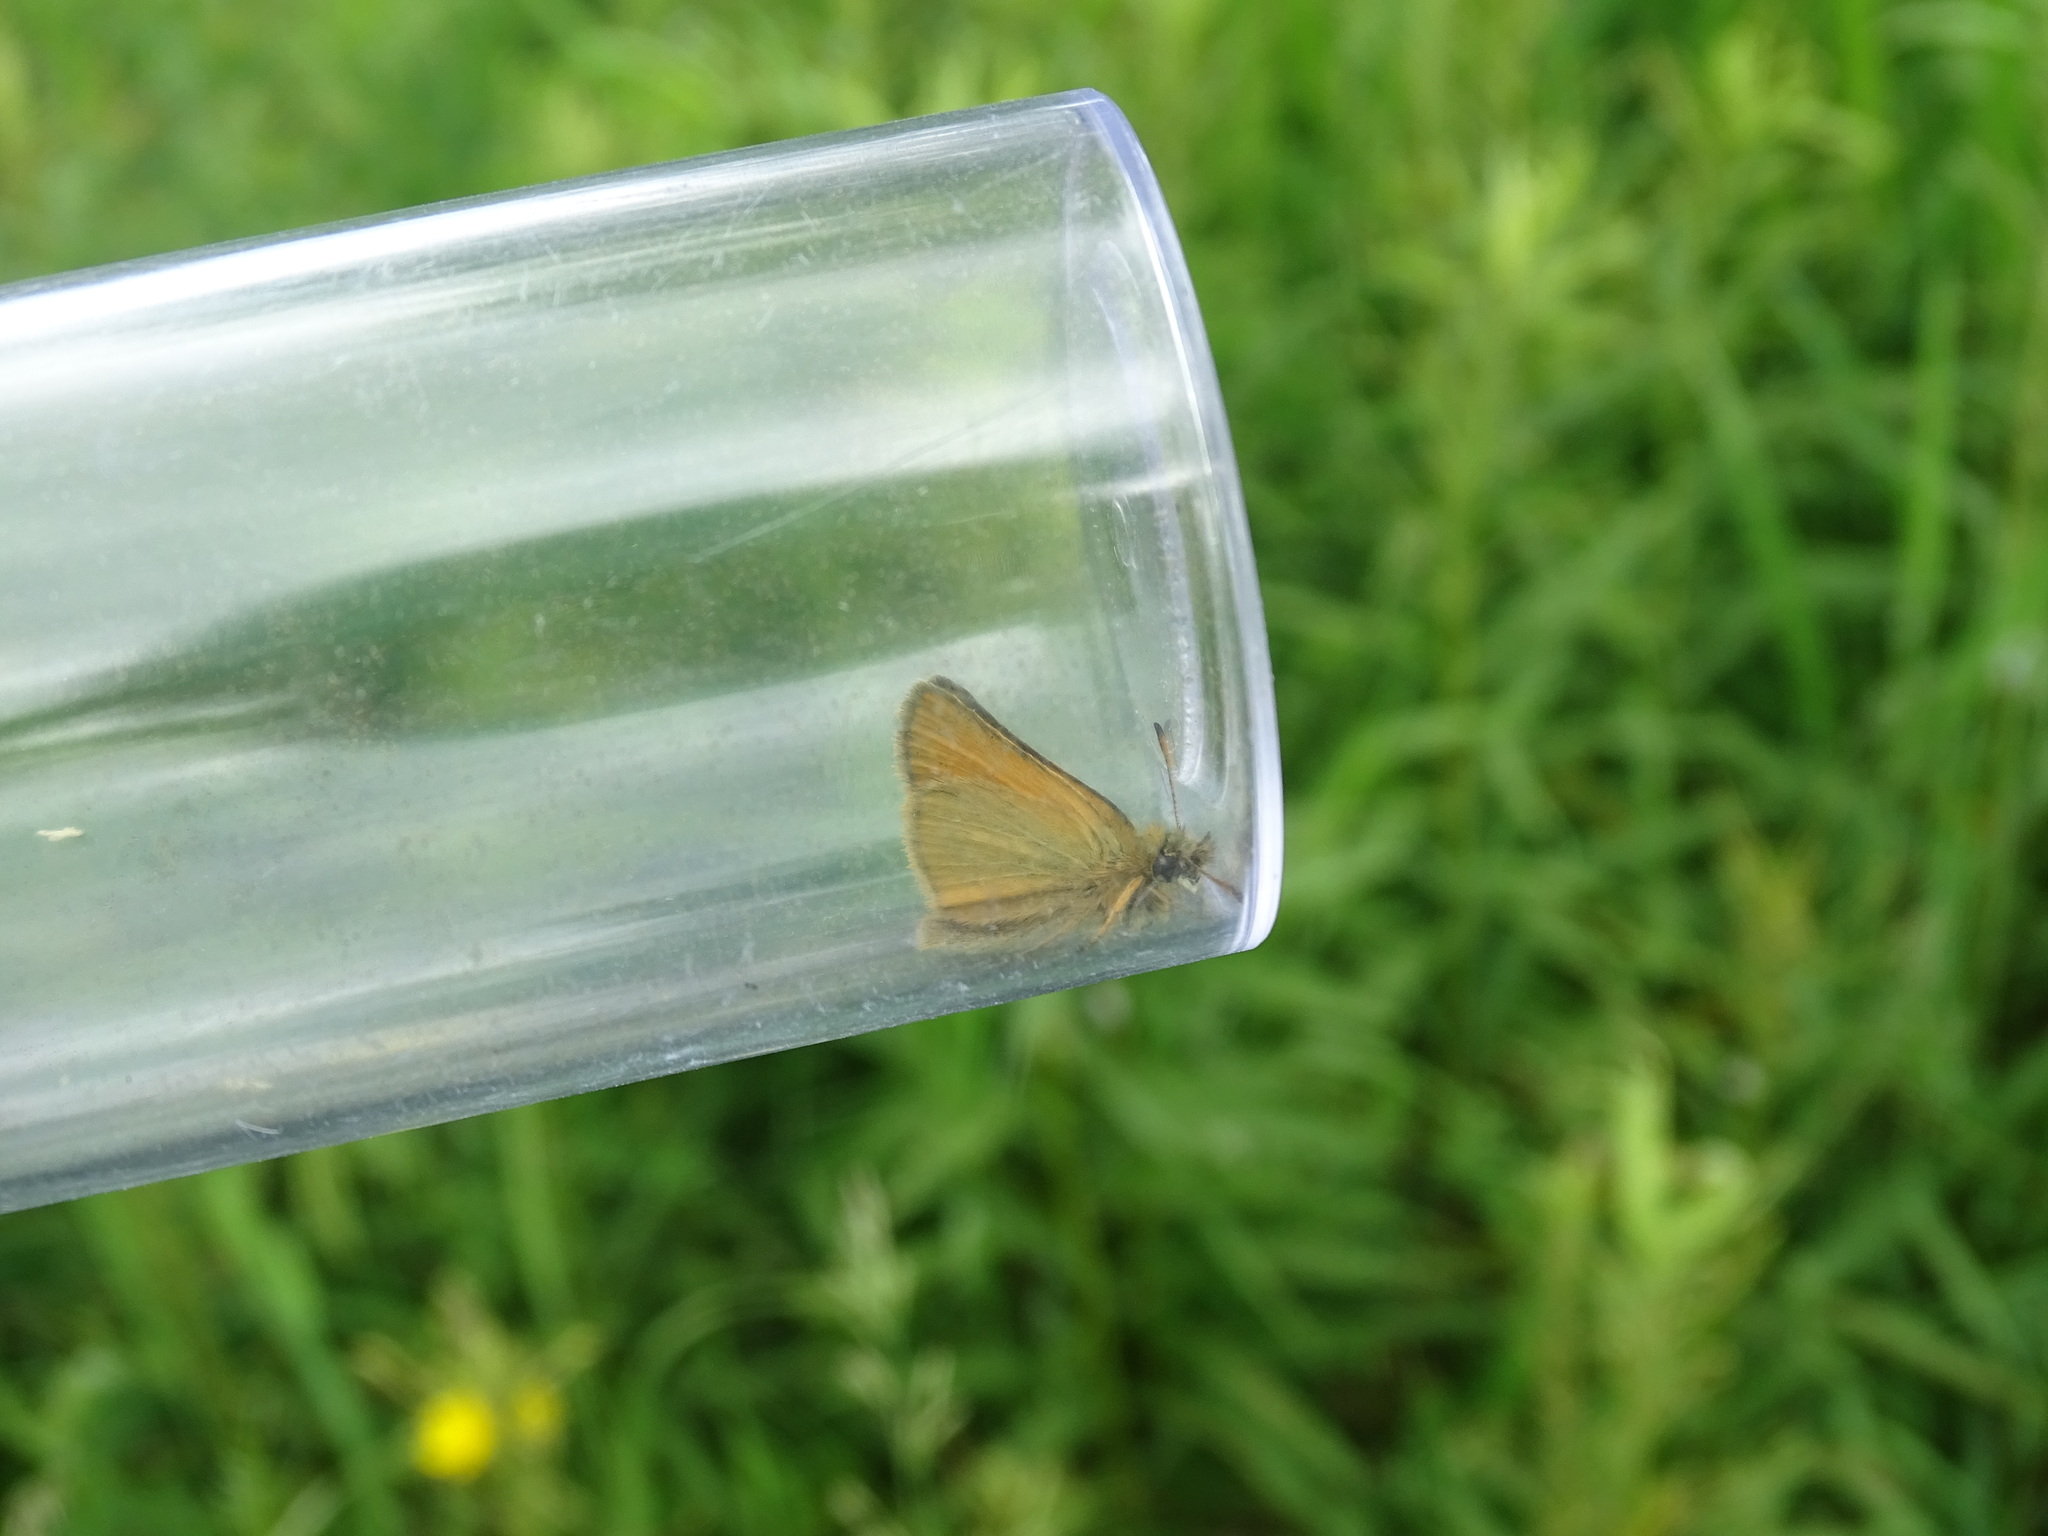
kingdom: Animalia
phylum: Arthropoda
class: Insecta
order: Lepidoptera
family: Hesperiidae
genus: Thymelicus
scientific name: Thymelicus lineola
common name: Essex skipper
